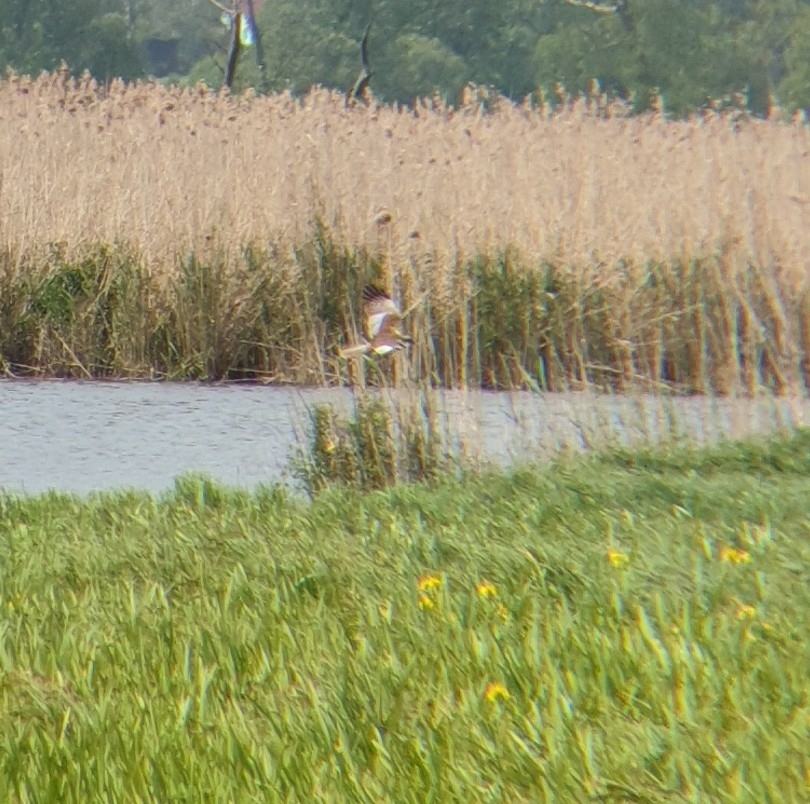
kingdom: Animalia
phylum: Chordata
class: Aves
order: Accipitriformes
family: Accipitridae
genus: Circus
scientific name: Circus aeruginosus
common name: Western marsh harrier
